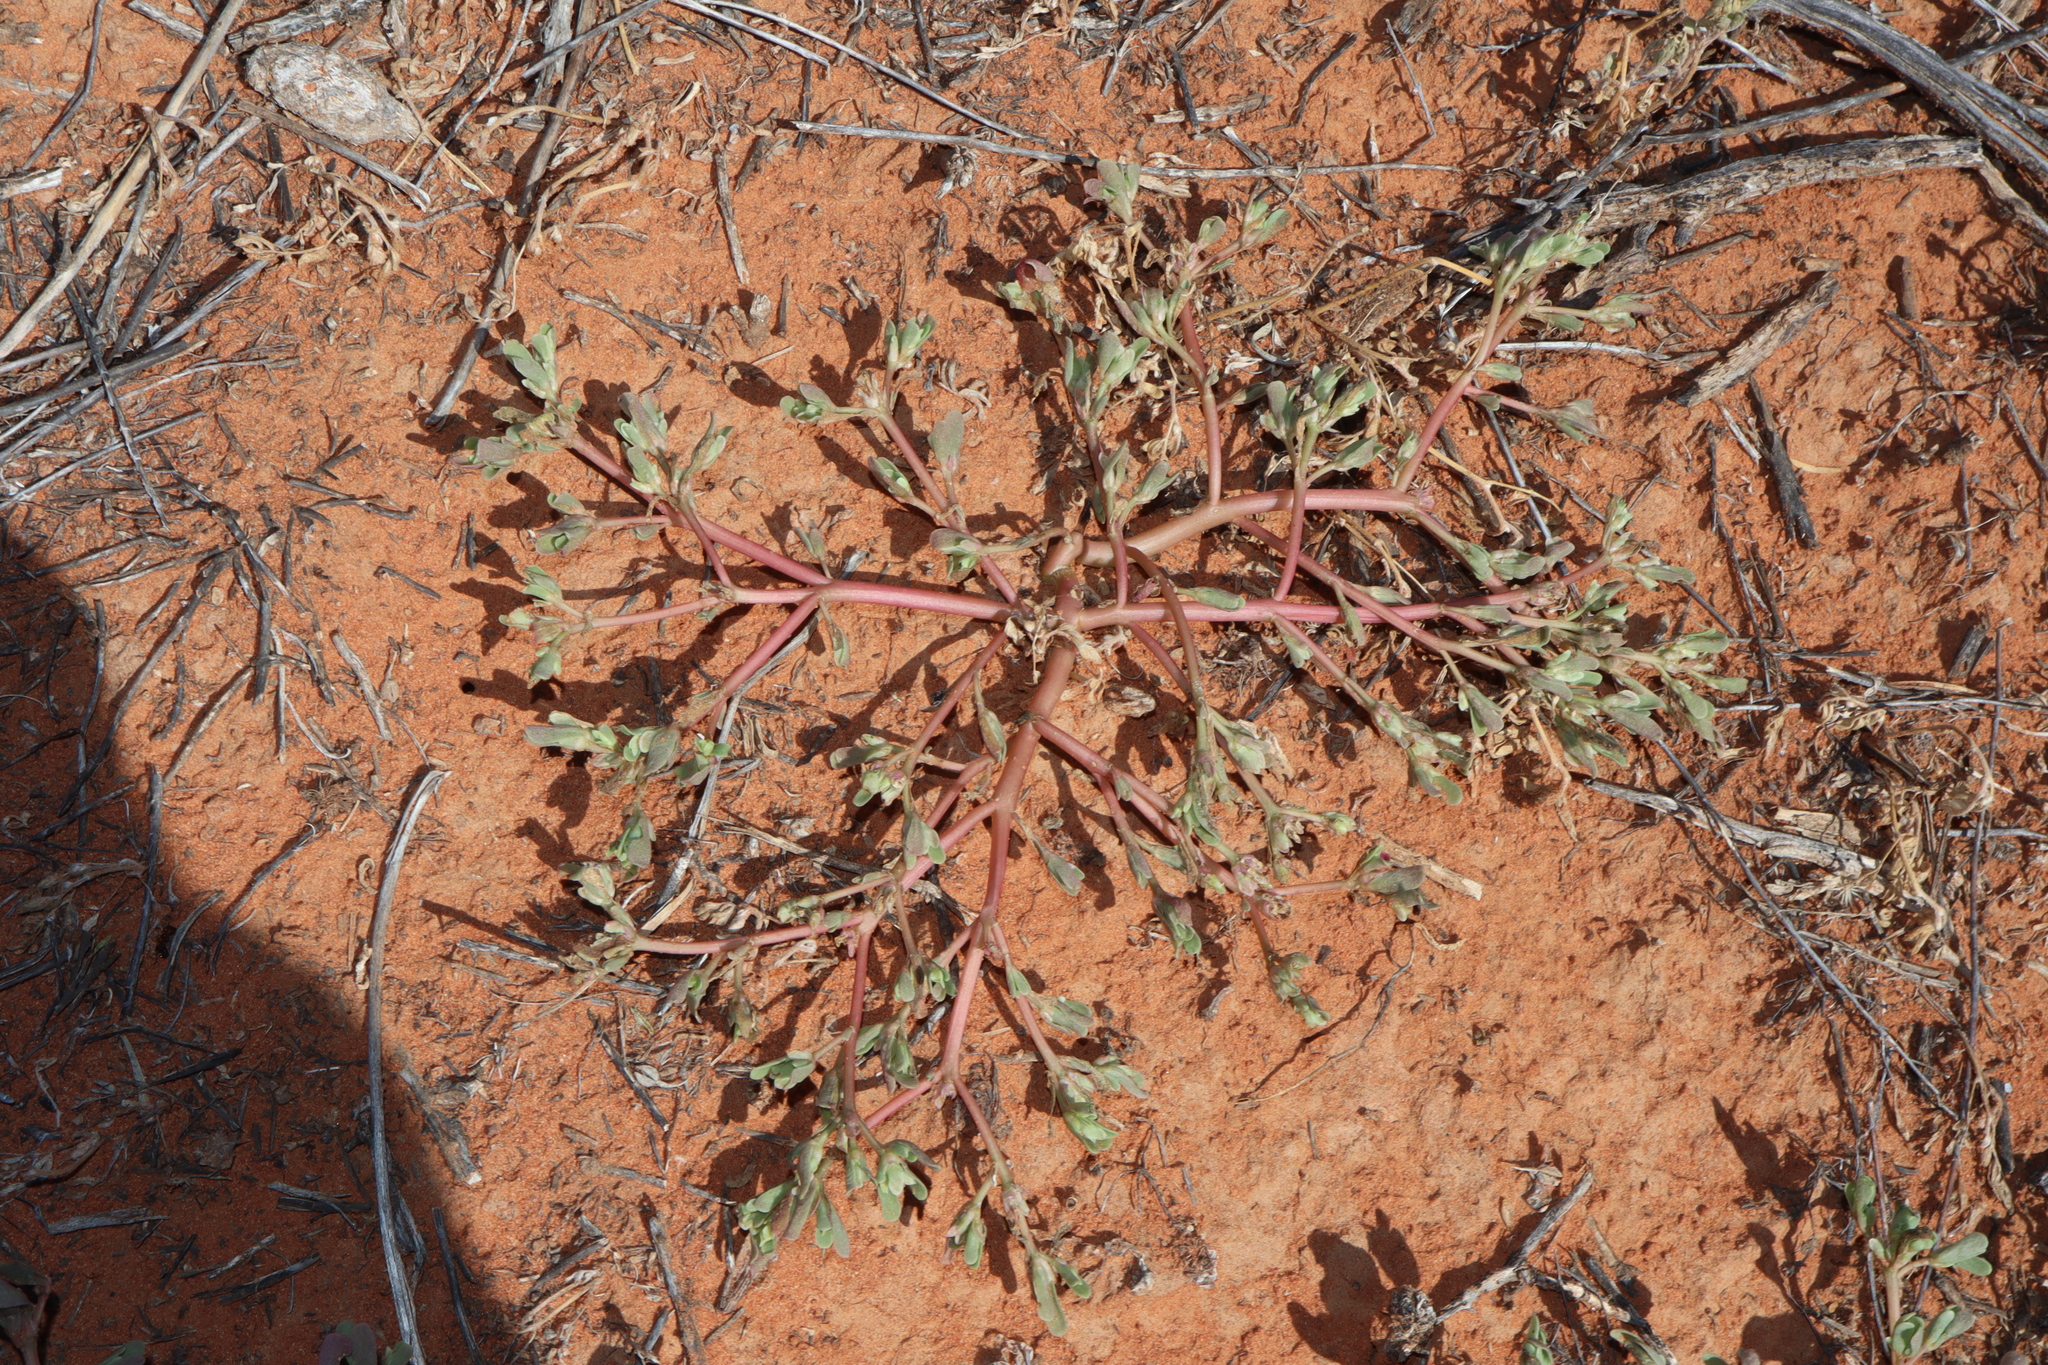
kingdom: Plantae
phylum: Tracheophyta
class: Magnoliopsida
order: Caryophyllales
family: Portulacaceae
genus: Portulaca
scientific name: Portulaca oleracea
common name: Common purslane
